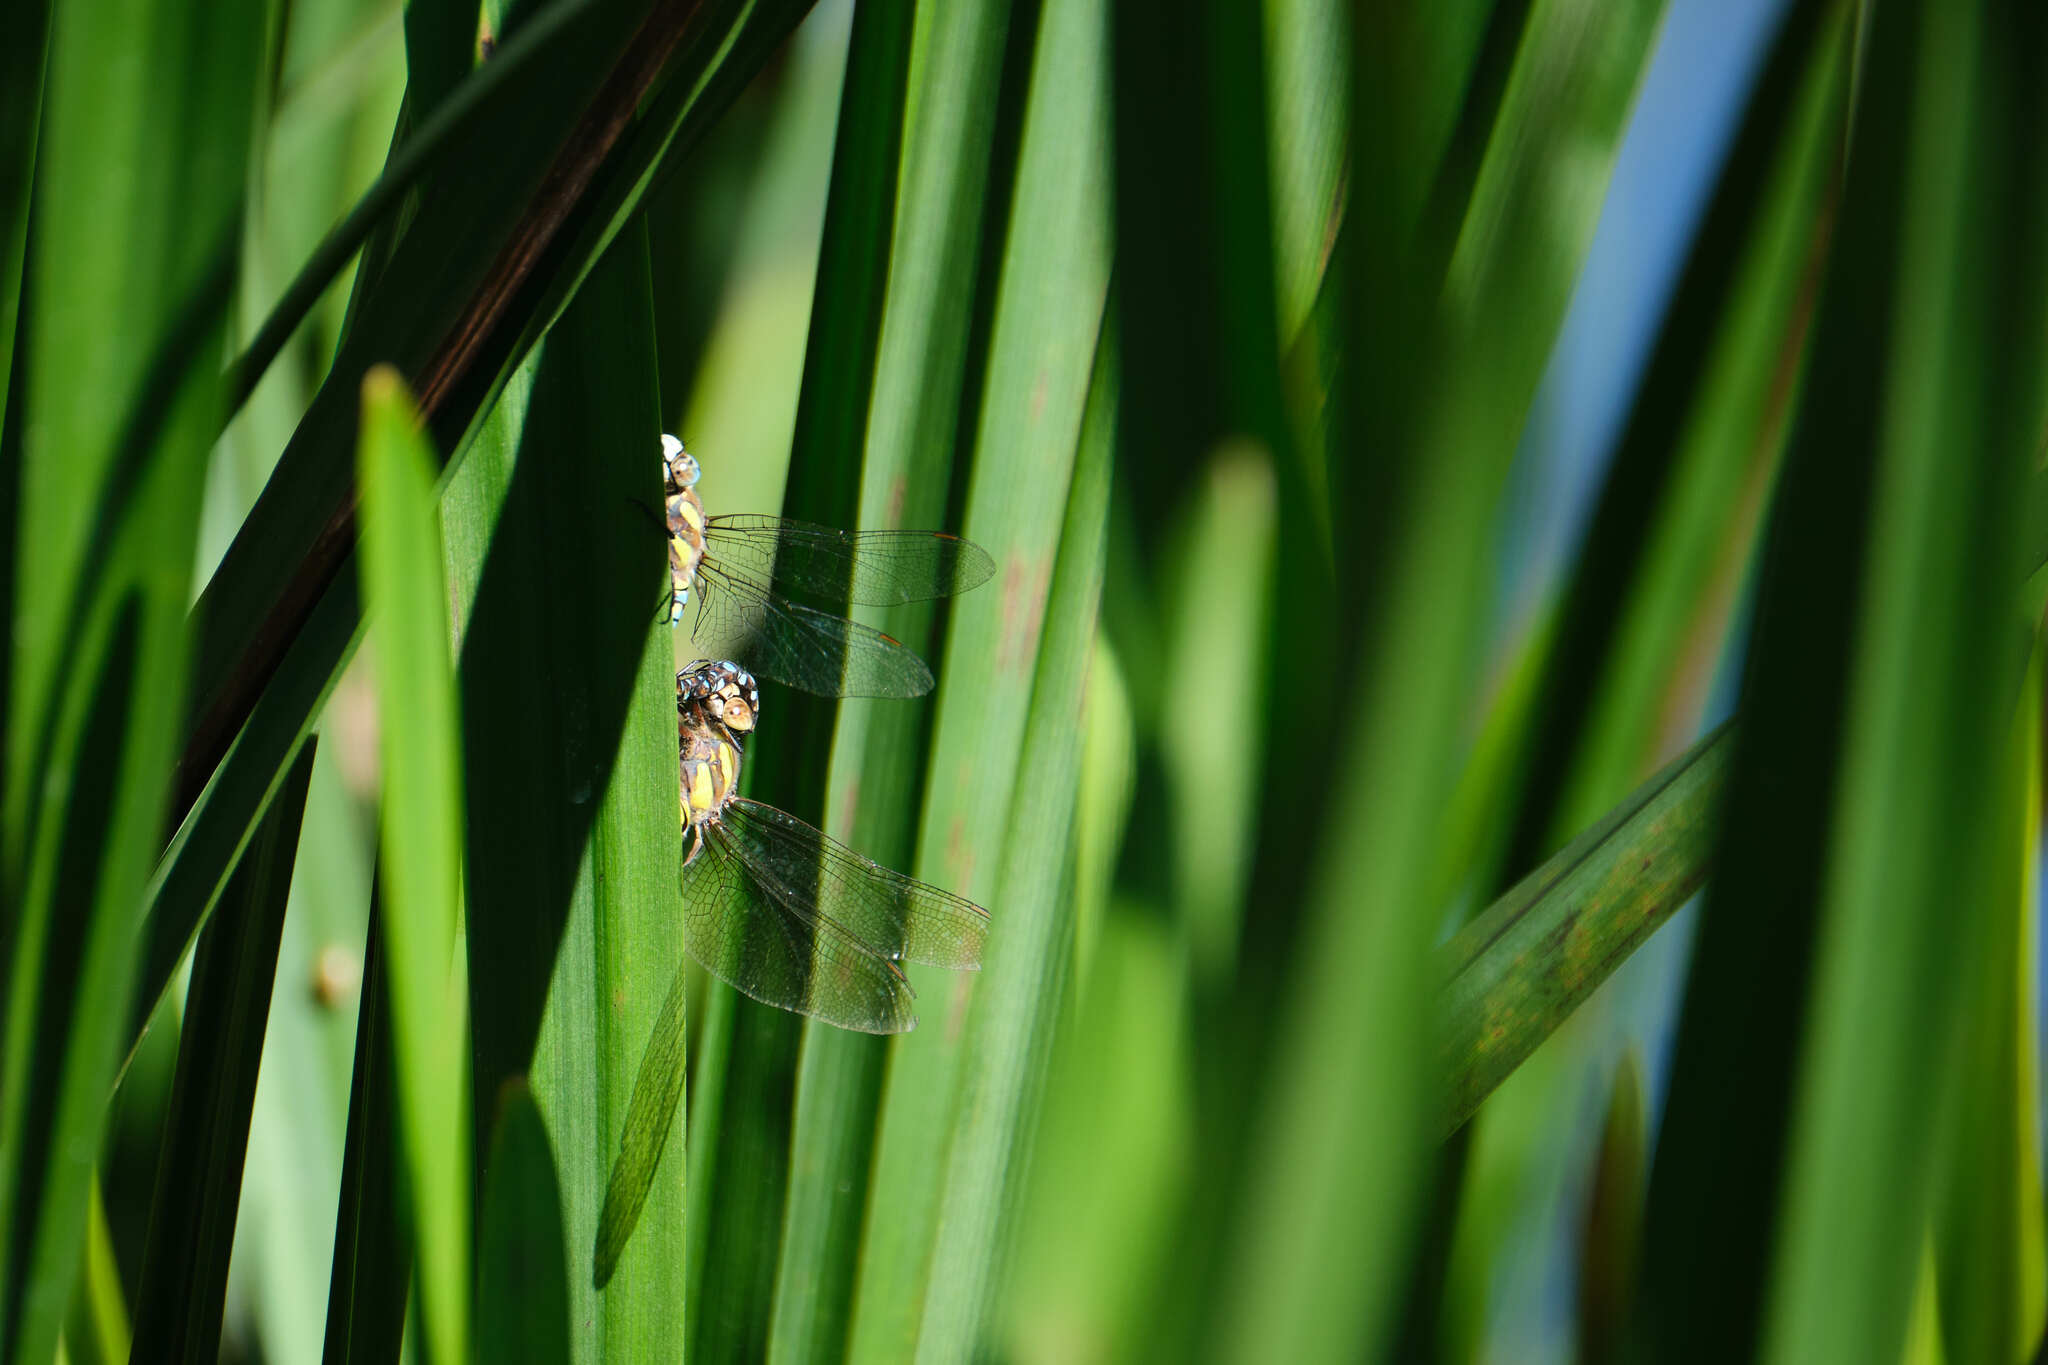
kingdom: Animalia
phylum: Arthropoda
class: Insecta
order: Odonata
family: Aeshnidae
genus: Aeshna
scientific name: Aeshna mixta
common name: Migrant hawker
